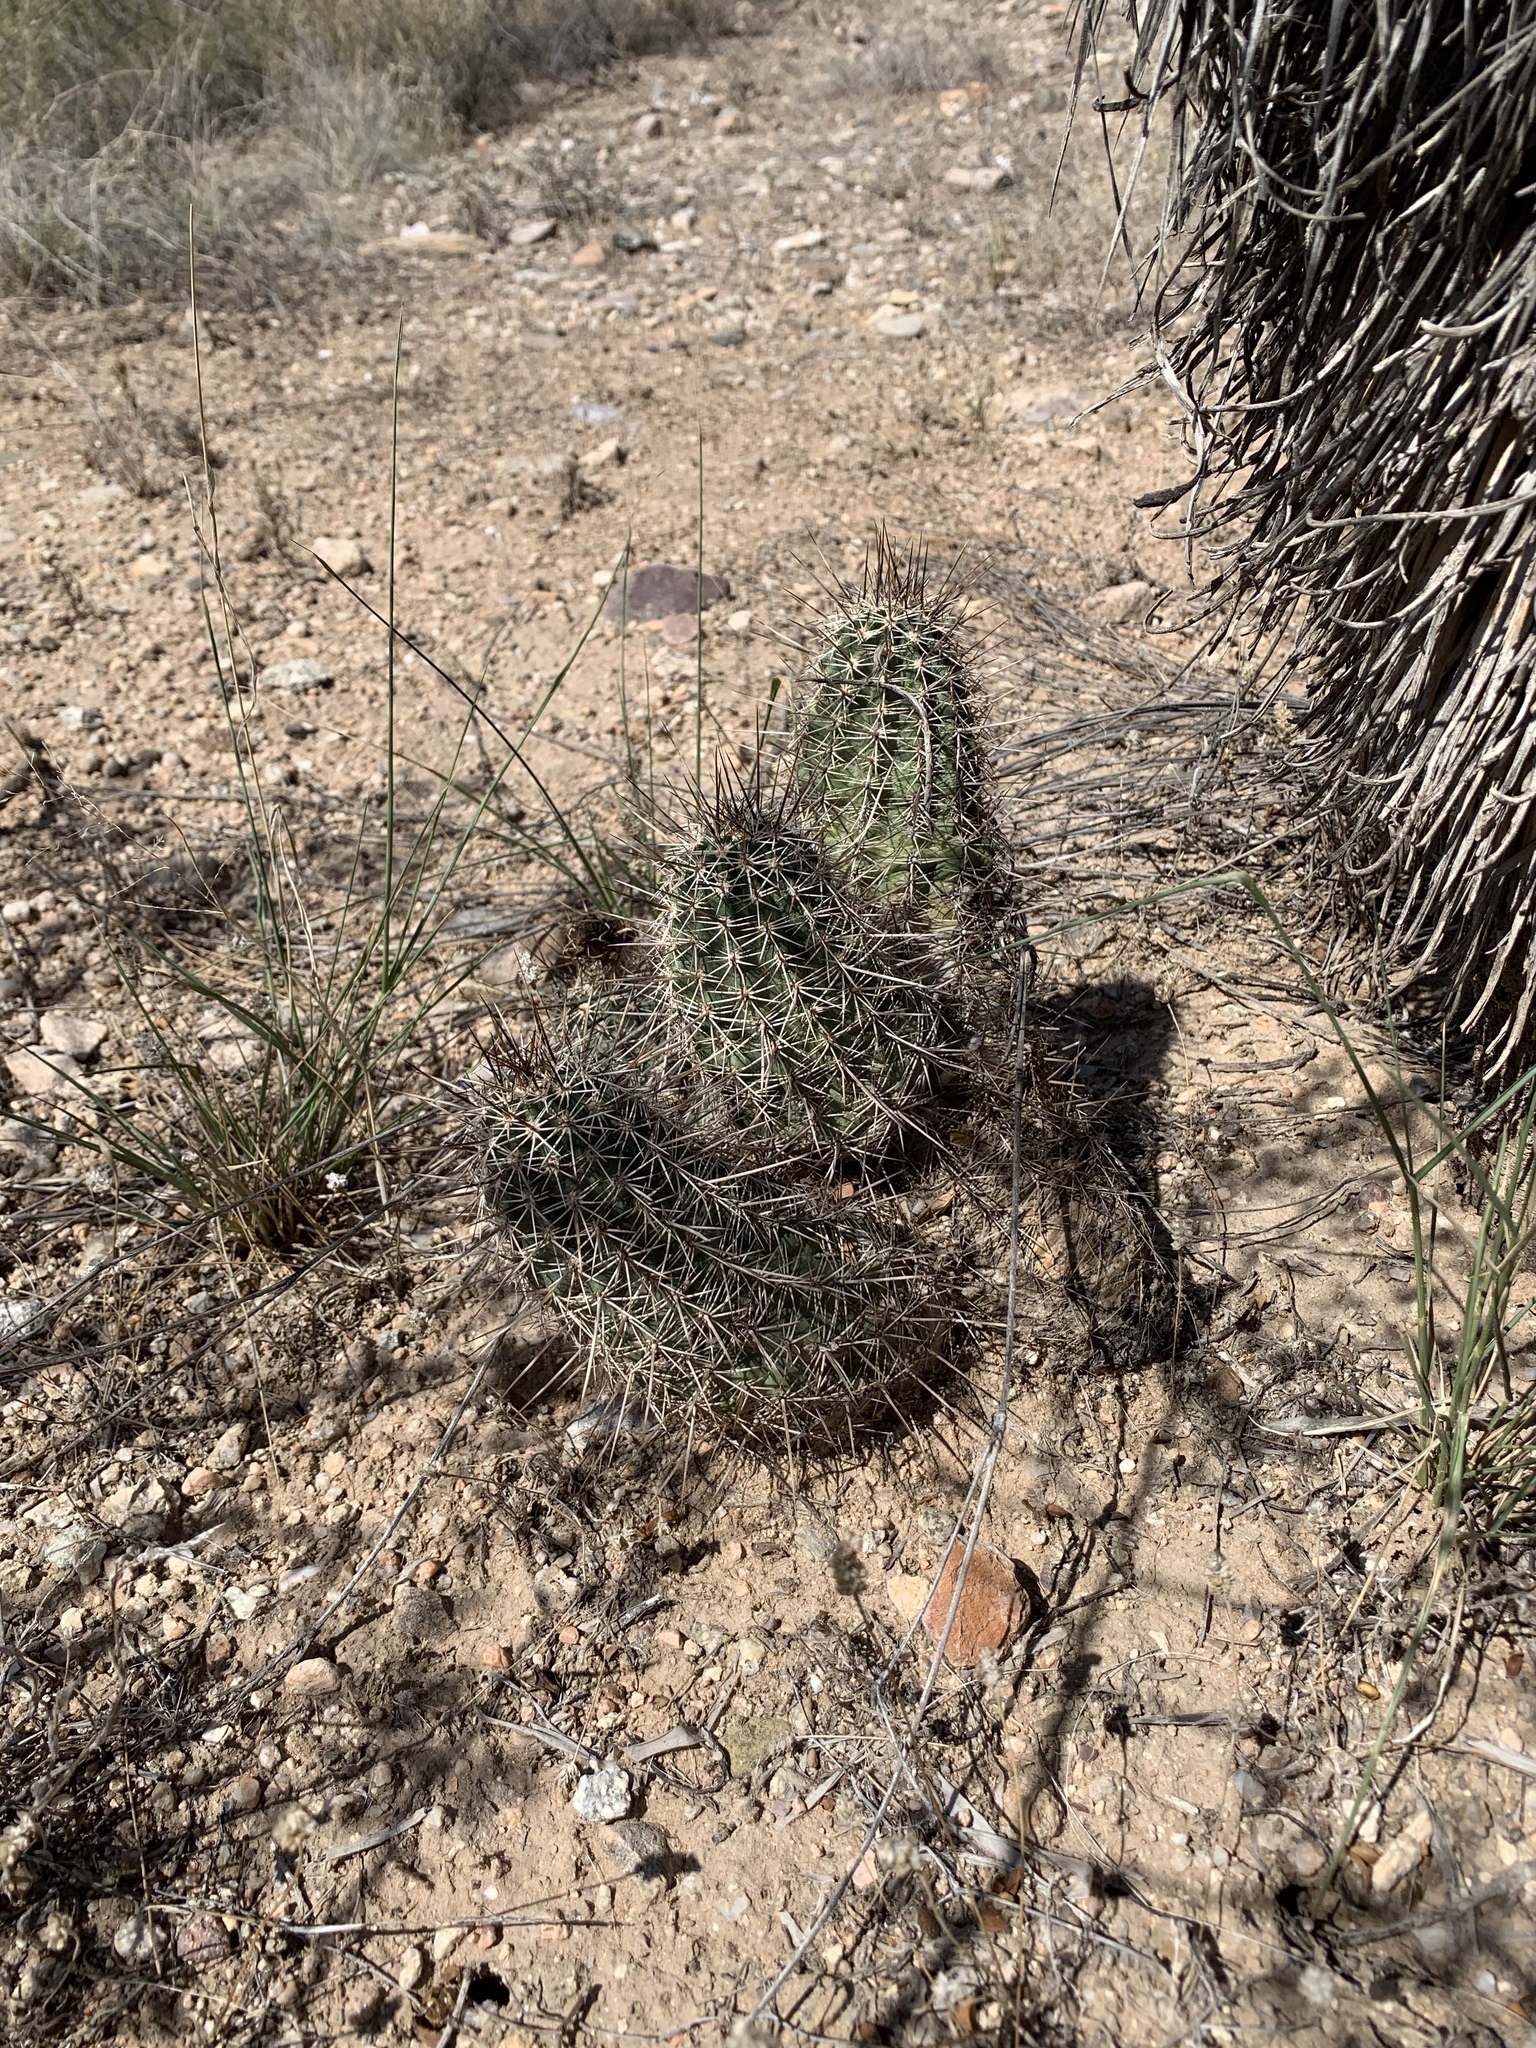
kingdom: Plantae
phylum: Tracheophyta
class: Magnoliopsida
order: Caryophyllales
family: Cactaceae
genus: Echinocereus
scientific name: Echinocereus fasciculatus
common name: Bundle hedgehog
